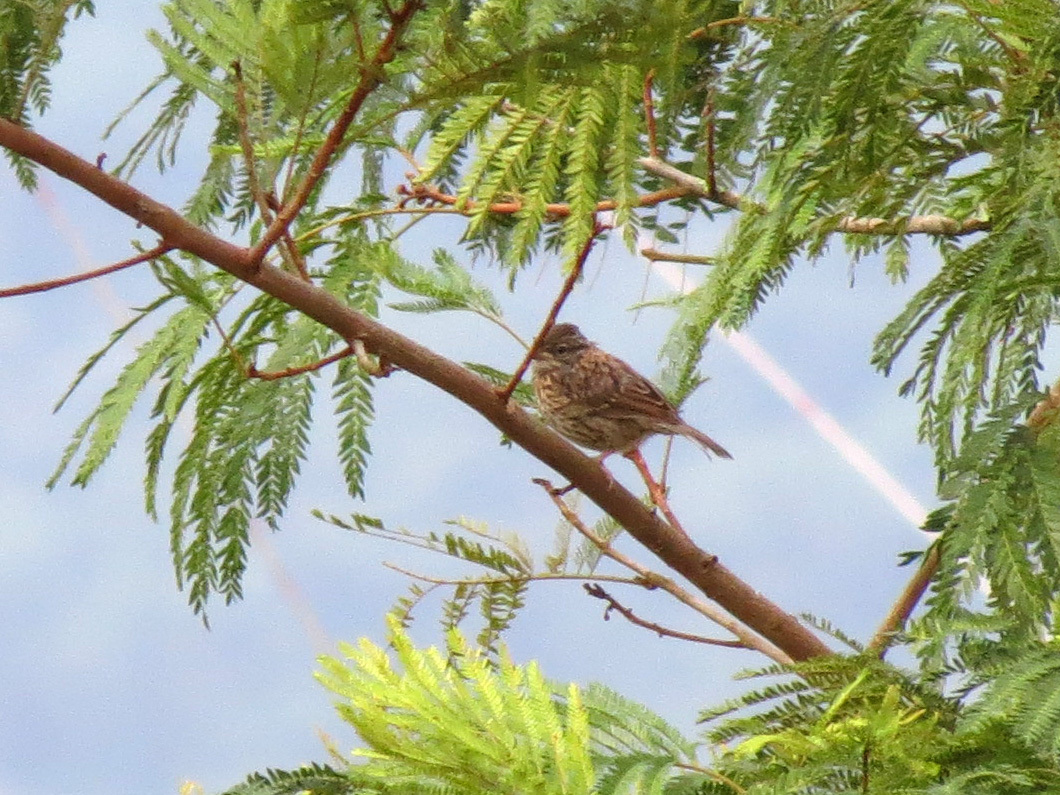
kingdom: Animalia
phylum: Chordata
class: Aves
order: Passeriformes
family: Passerellidae
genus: Zonotrichia
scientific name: Zonotrichia capensis
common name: Rufous-collared sparrow
